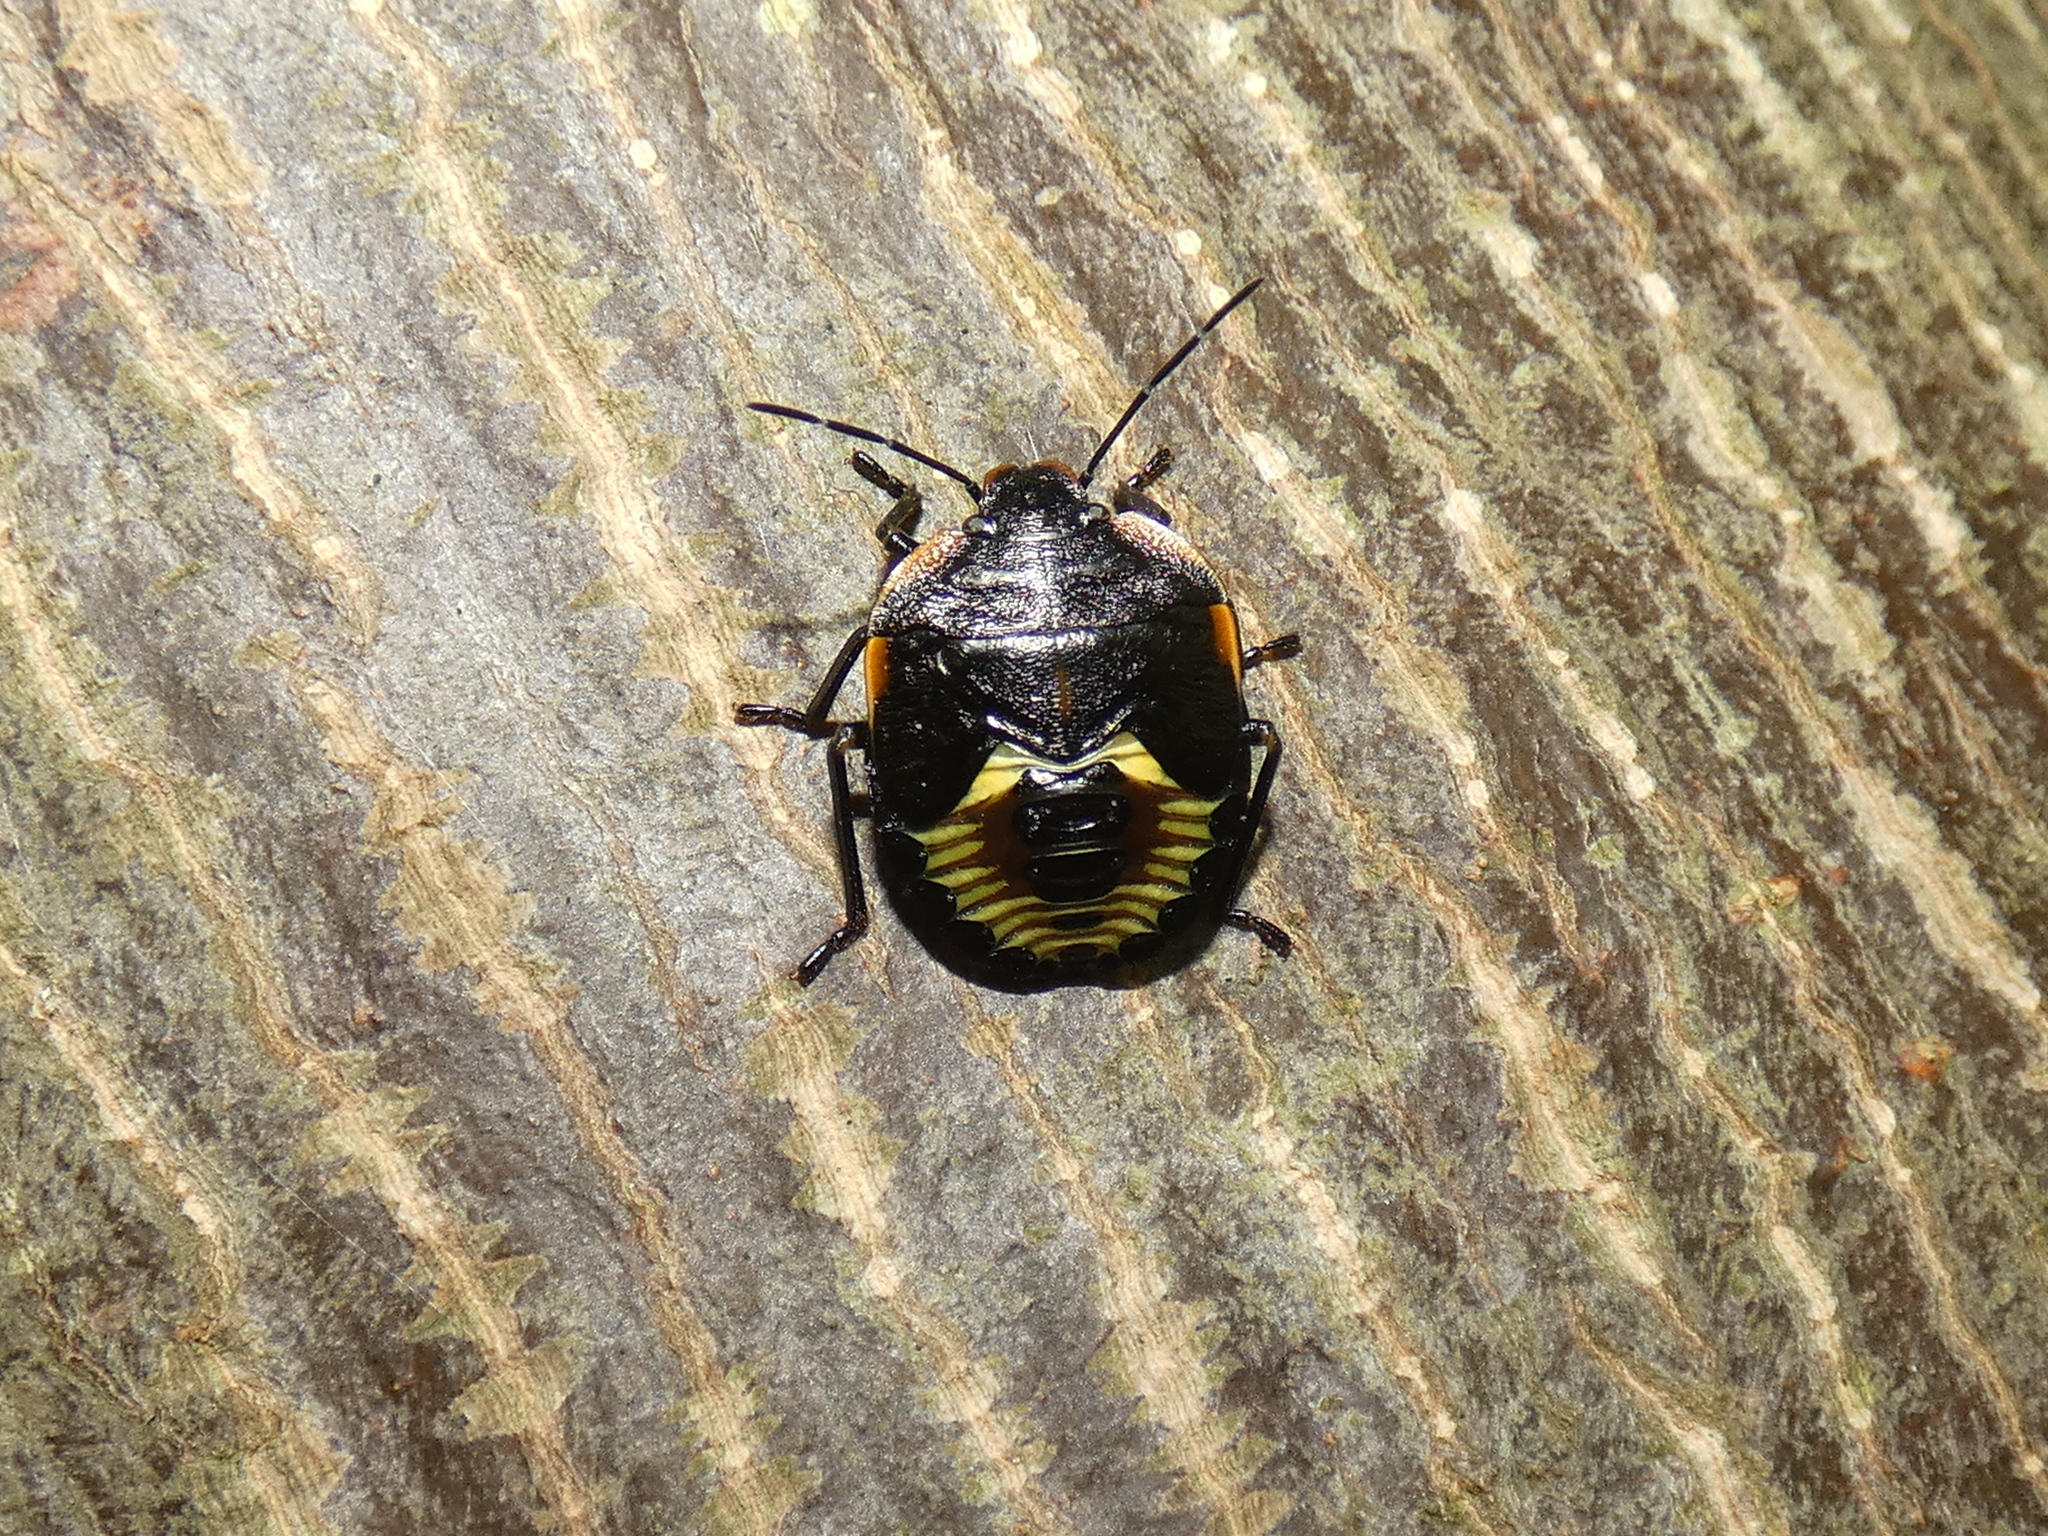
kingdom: Animalia
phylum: Arthropoda
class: Insecta
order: Hemiptera
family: Pentatomidae
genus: Chinavia
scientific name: Chinavia hilaris
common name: Green stink bug
